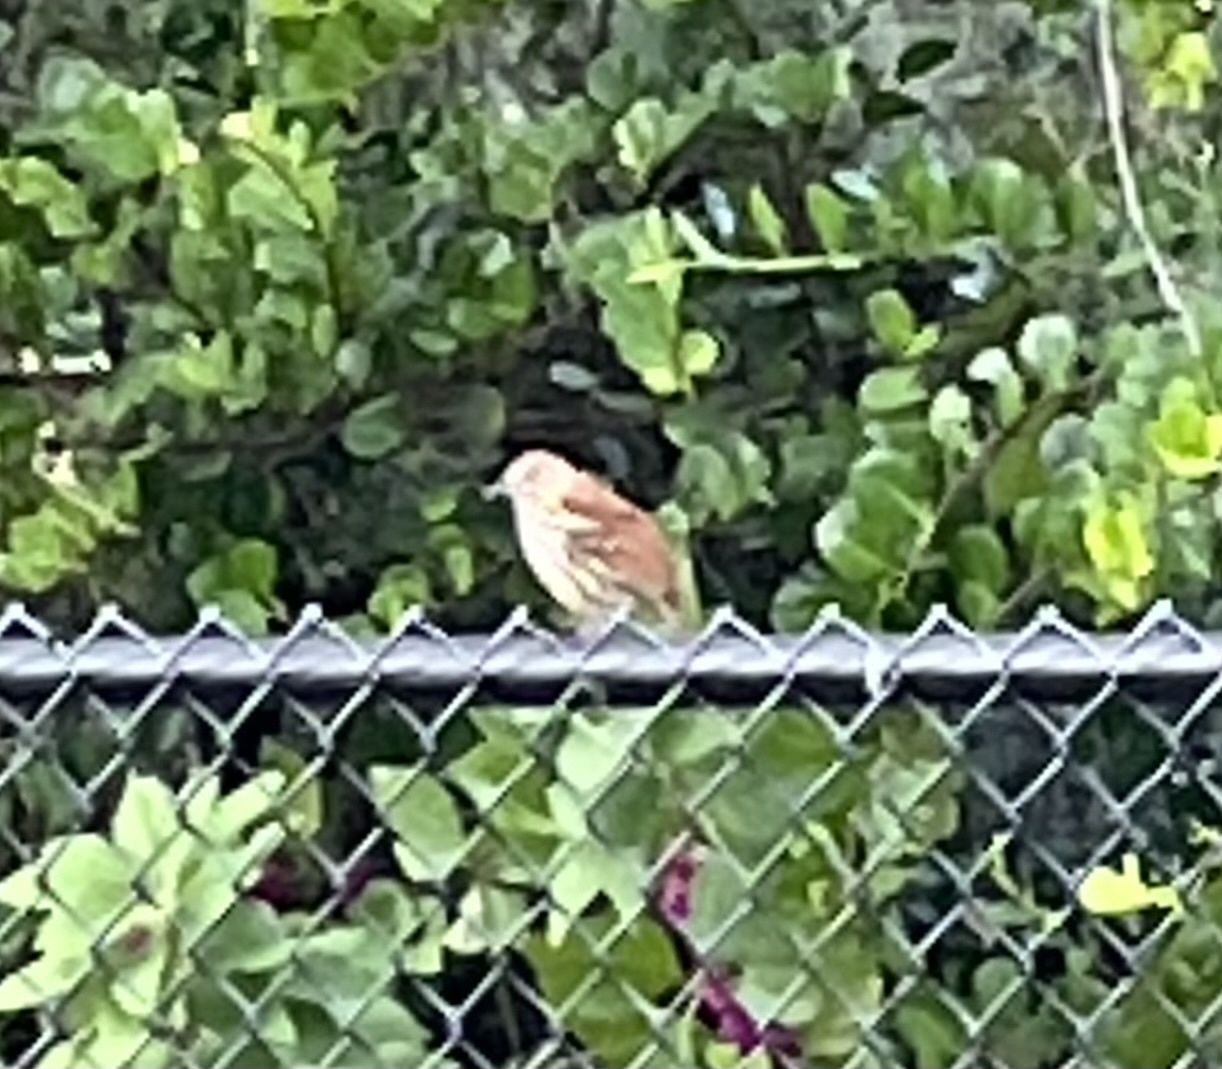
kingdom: Animalia
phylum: Chordata
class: Aves
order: Passeriformes
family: Mimidae
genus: Toxostoma
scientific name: Toxostoma rufum
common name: Brown thrasher
